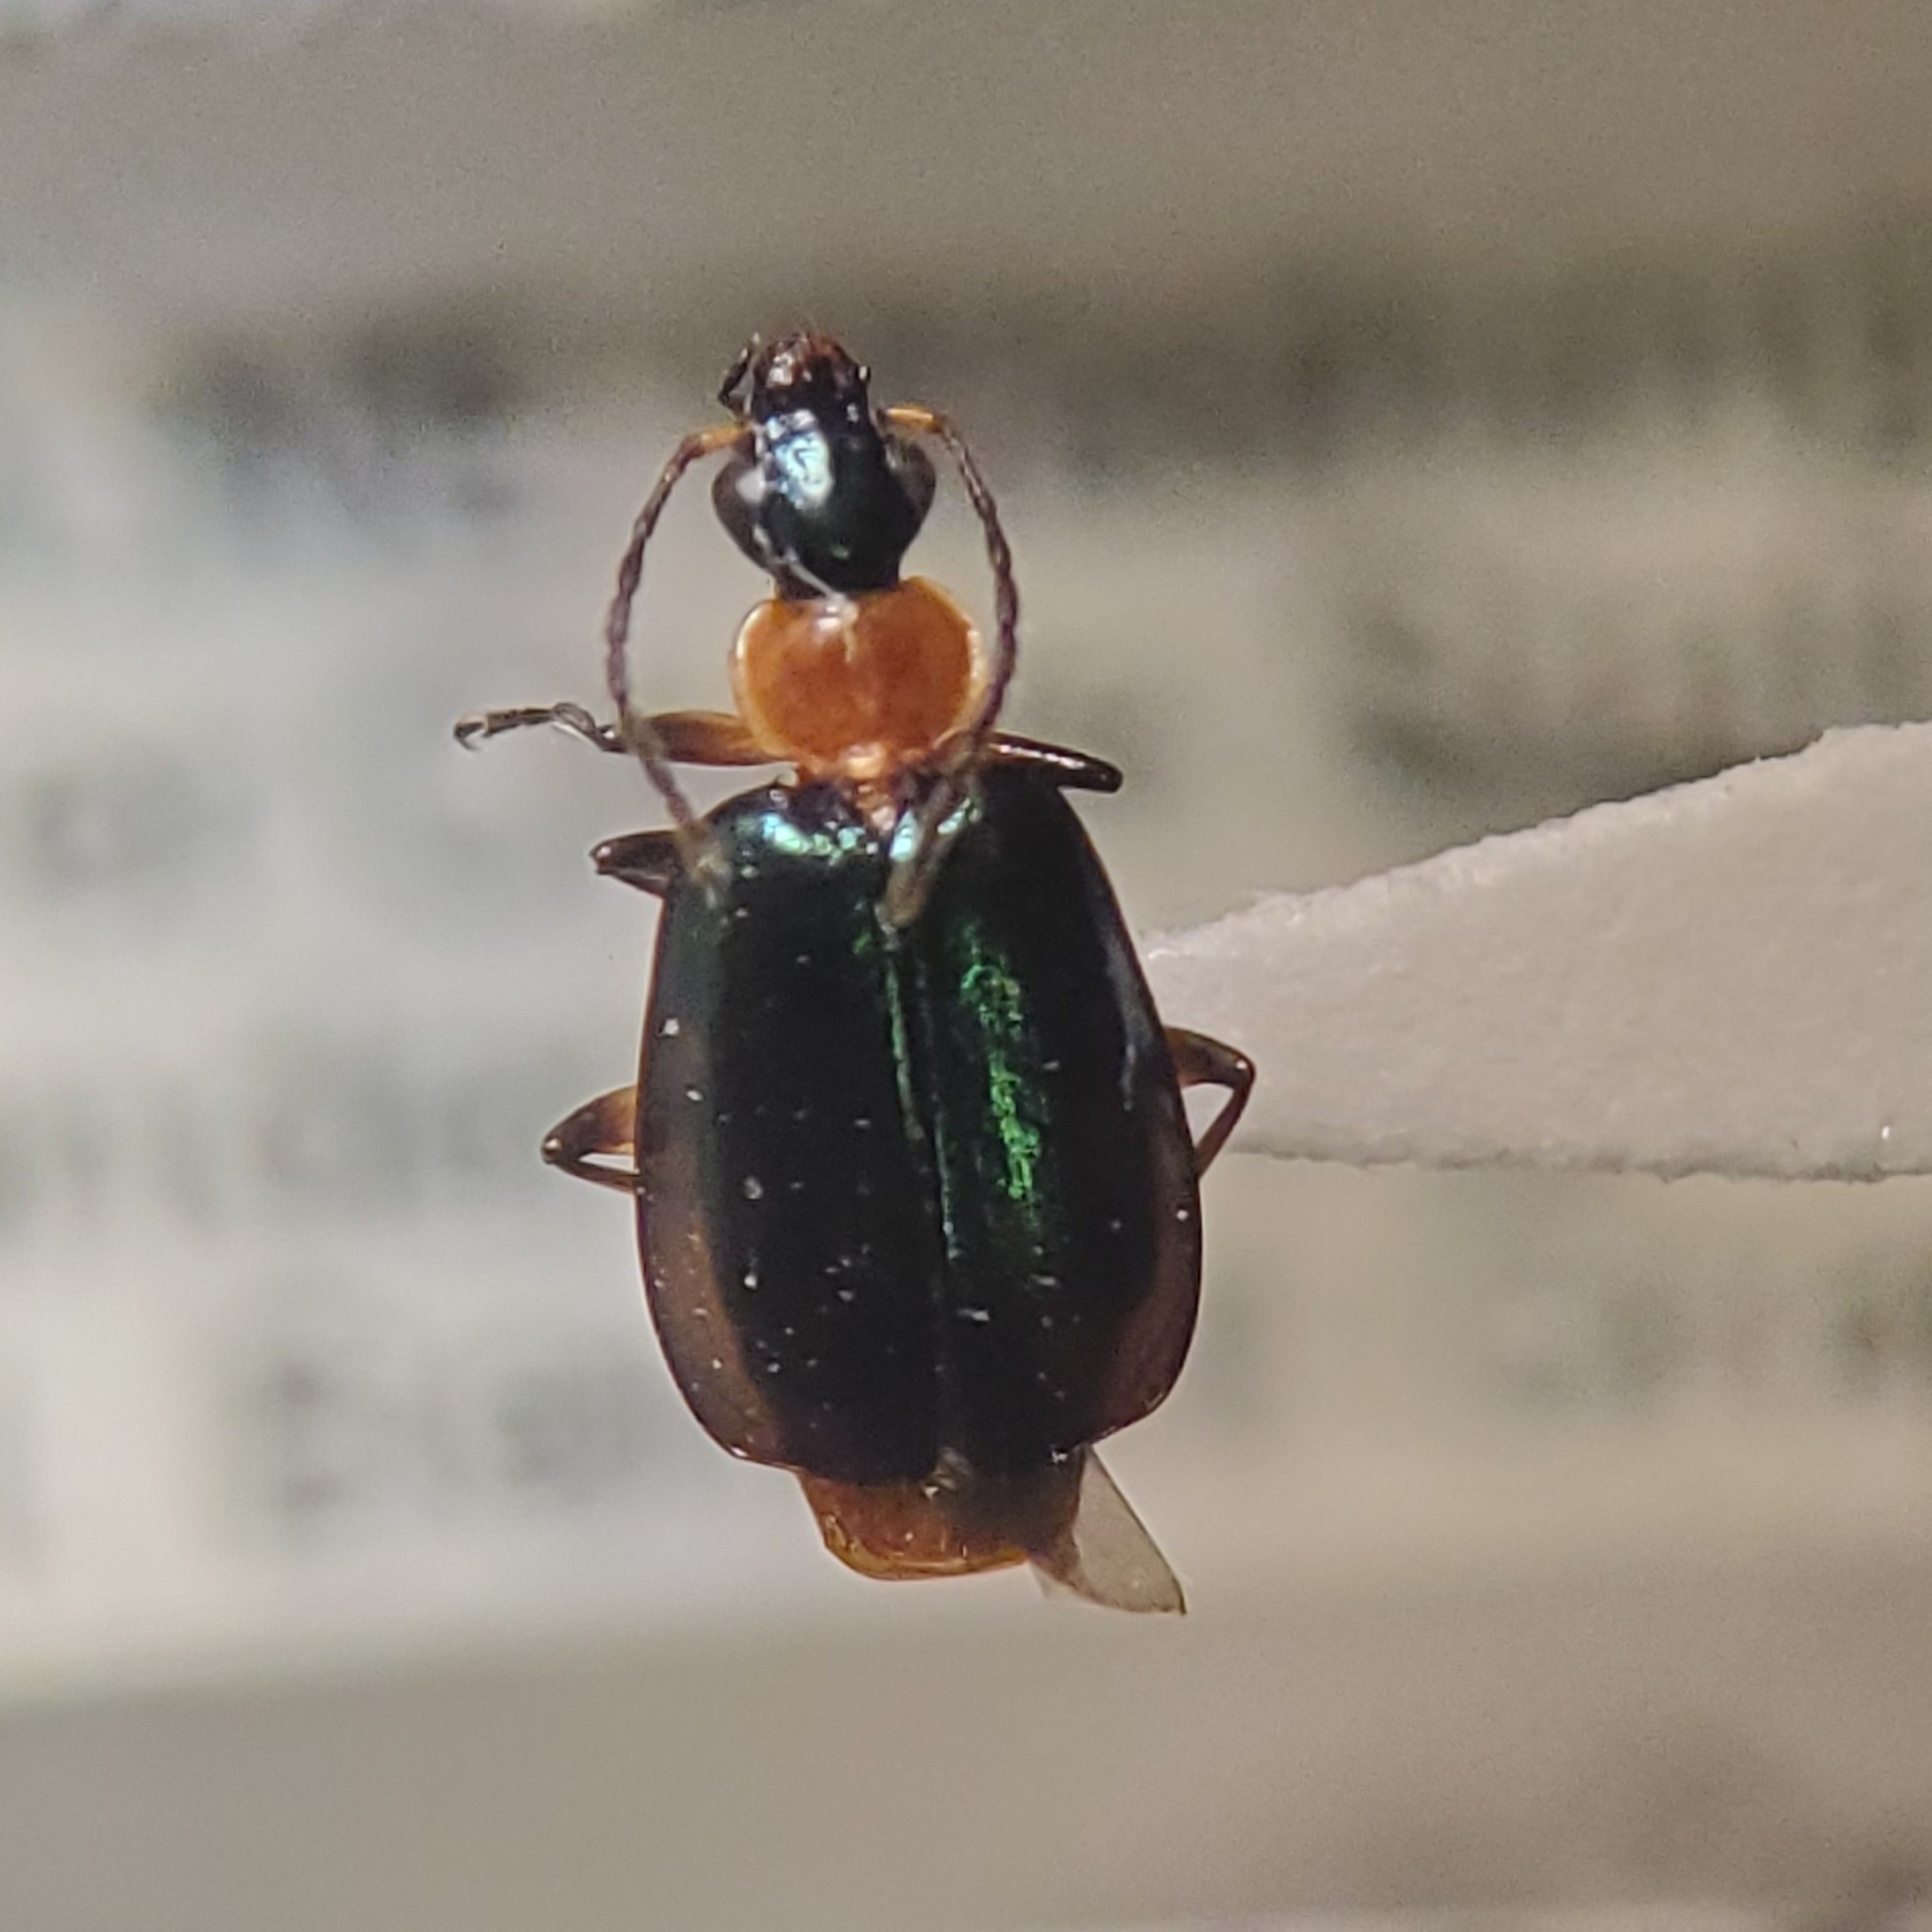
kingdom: Animalia
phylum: Arthropoda
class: Insecta
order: Coleoptera
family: Carabidae
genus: Lebia
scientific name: Lebia viridipennis
